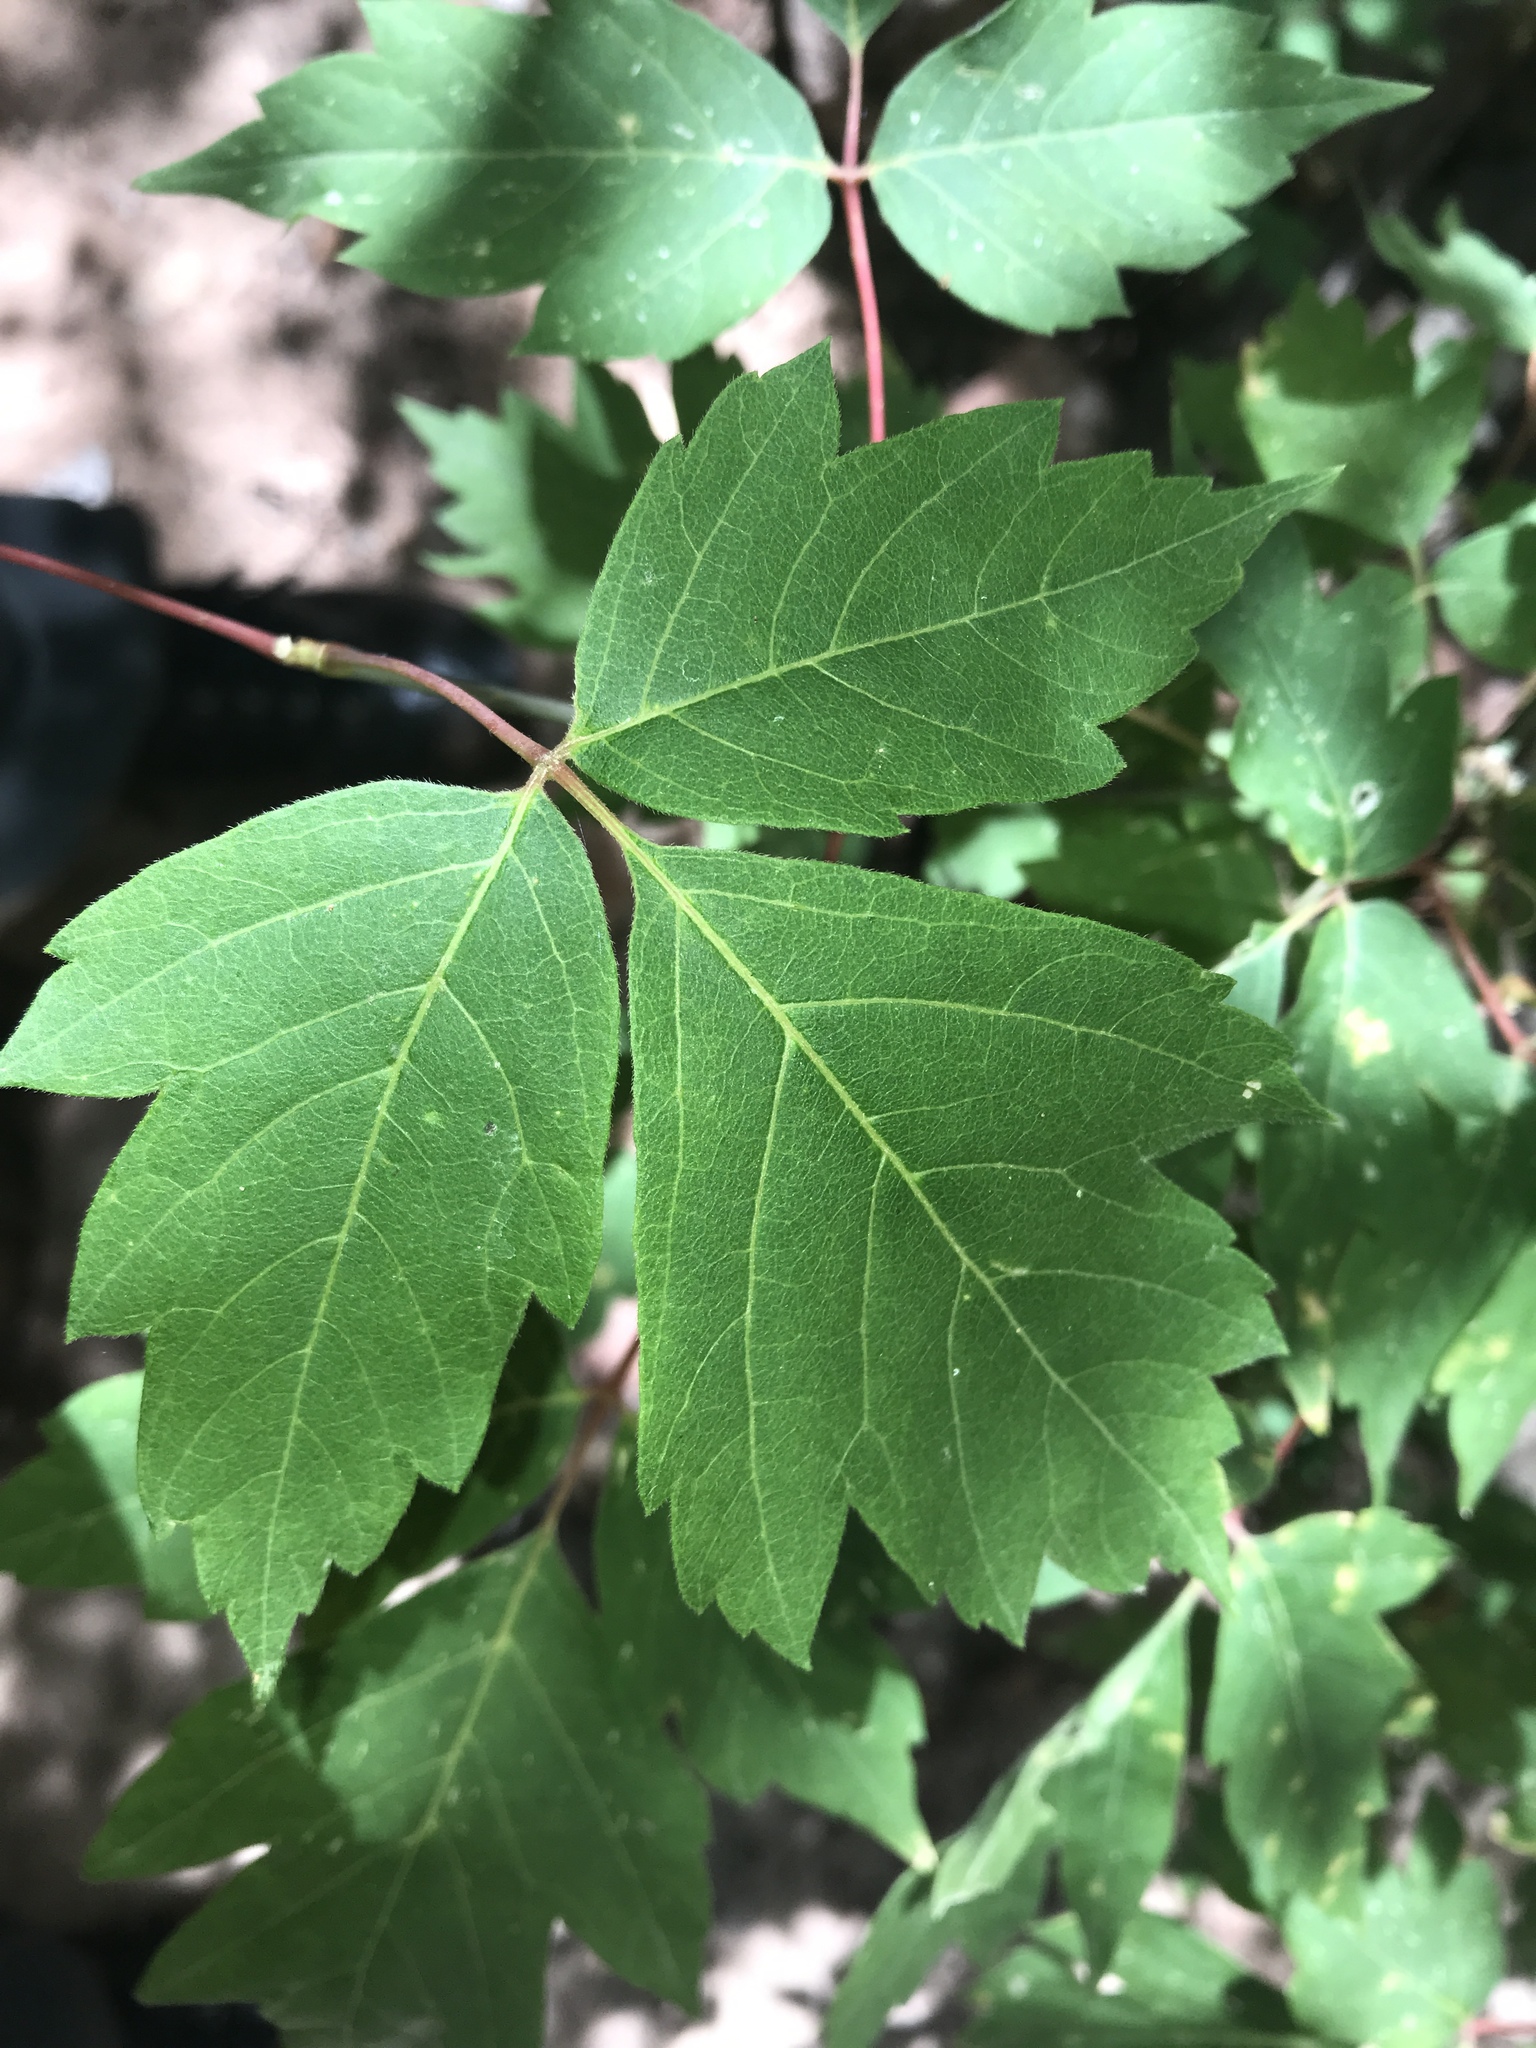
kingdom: Plantae
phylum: Tracheophyta
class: Magnoliopsida
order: Sapindales
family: Sapindaceae
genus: Acer
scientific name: Acer negundo
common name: Ashleaf maple
